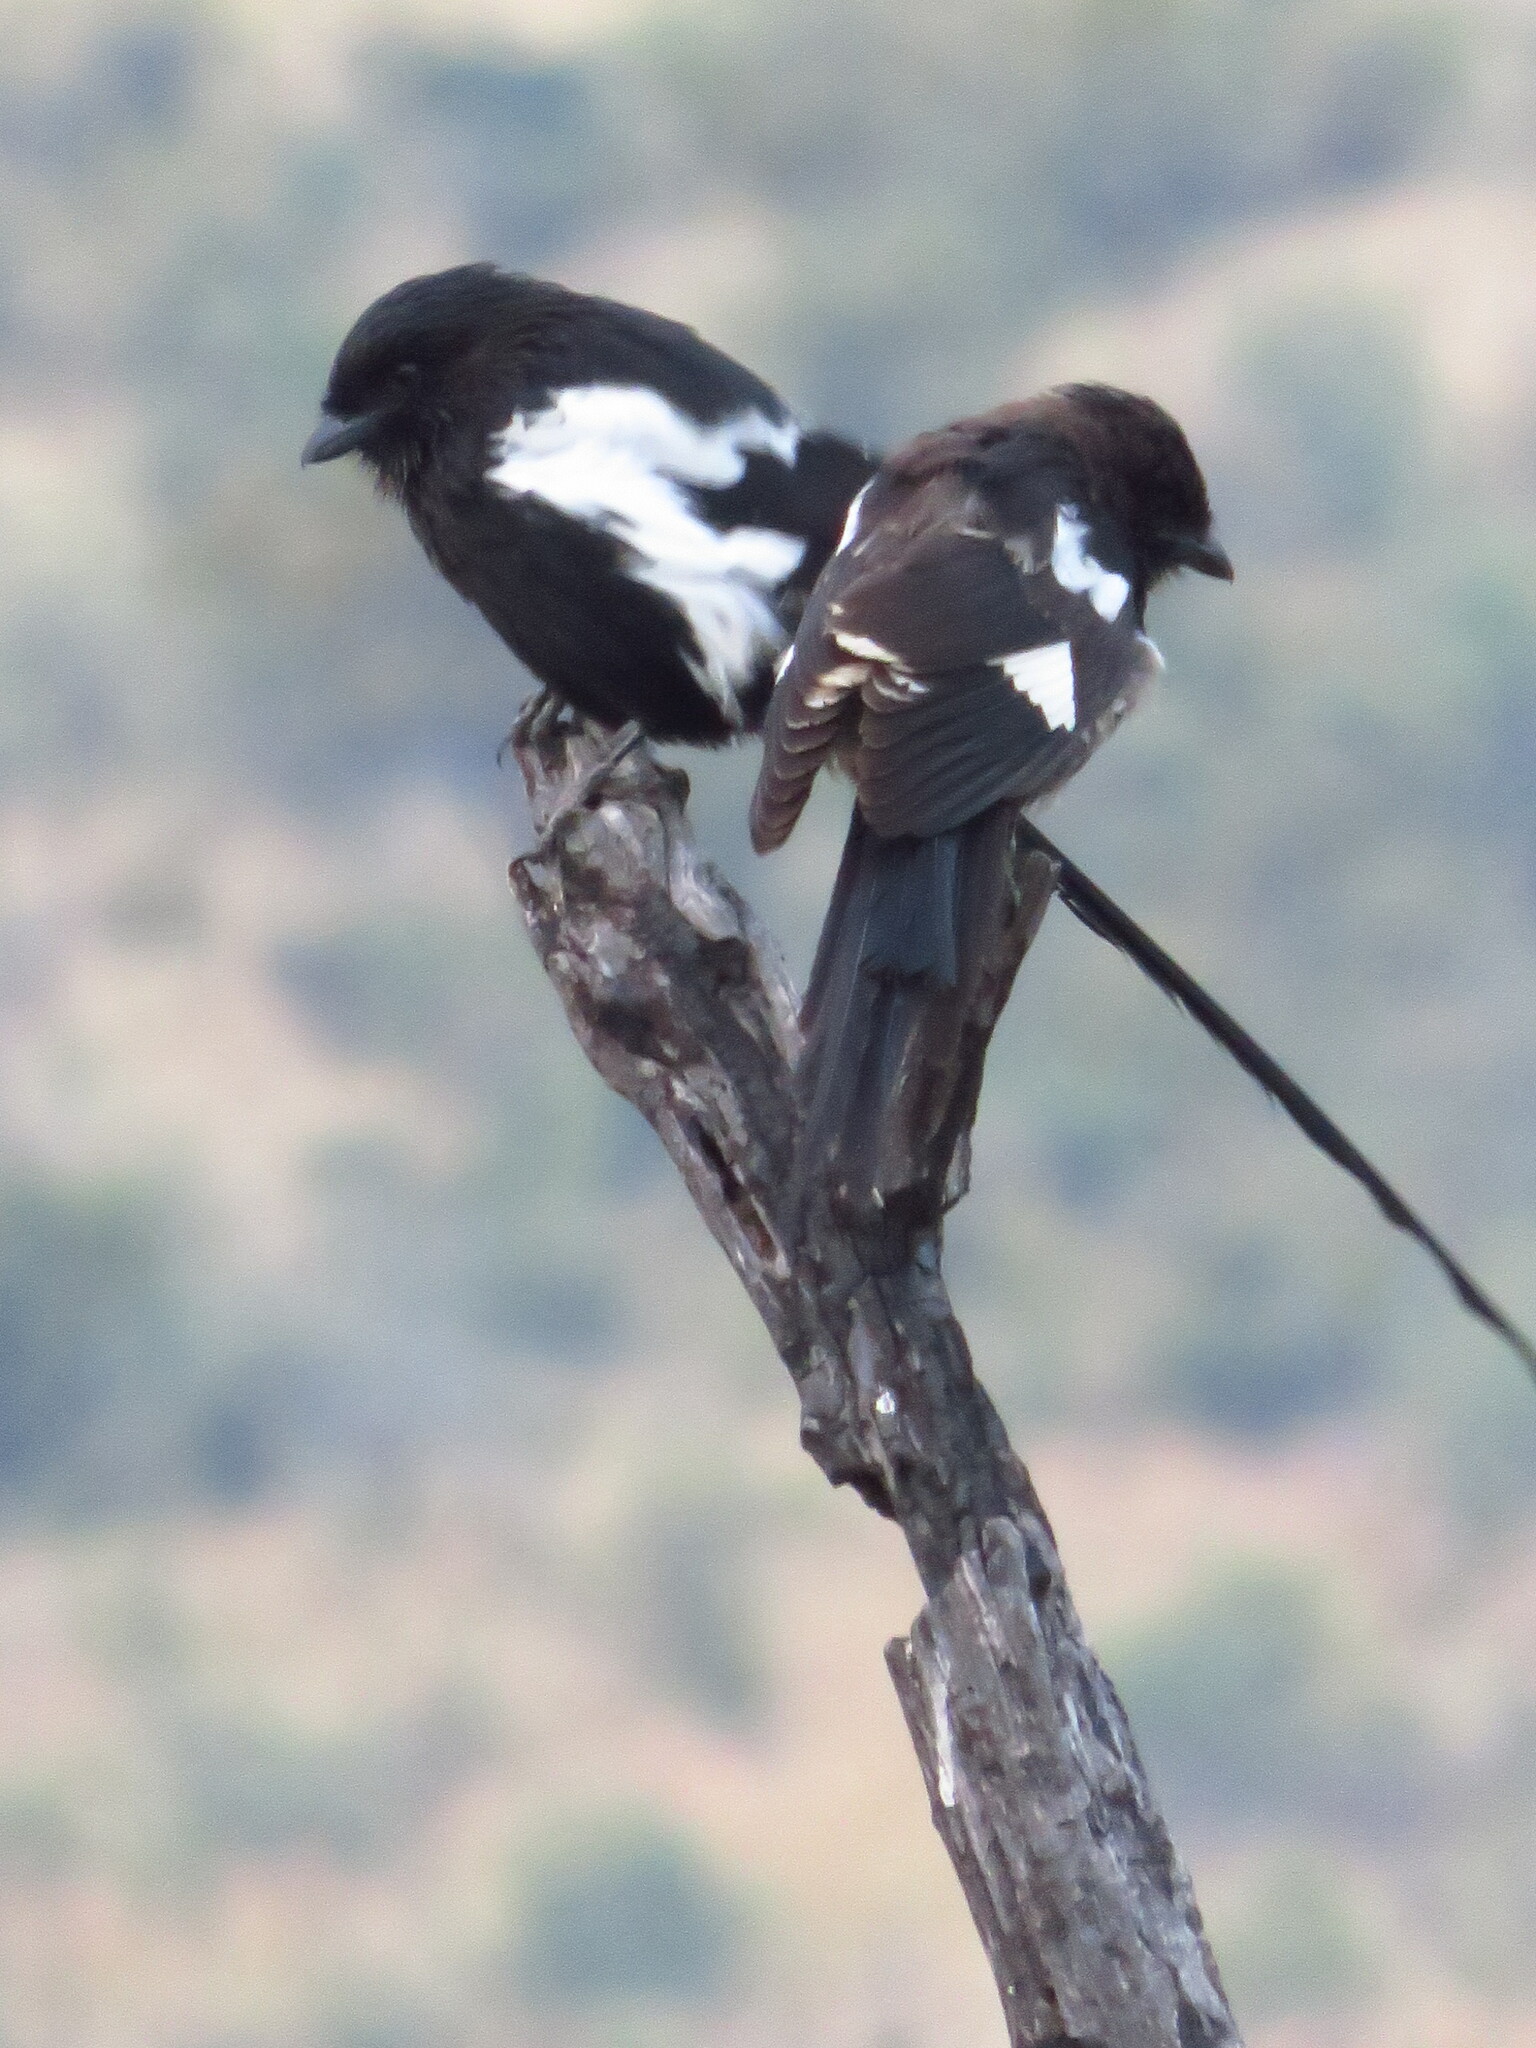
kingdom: Animalia
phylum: Chordata
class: Aves
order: Passeriformes
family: Laniidae
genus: Urolestes
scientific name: Urolestes melanoleucus
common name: Magpie shrike
